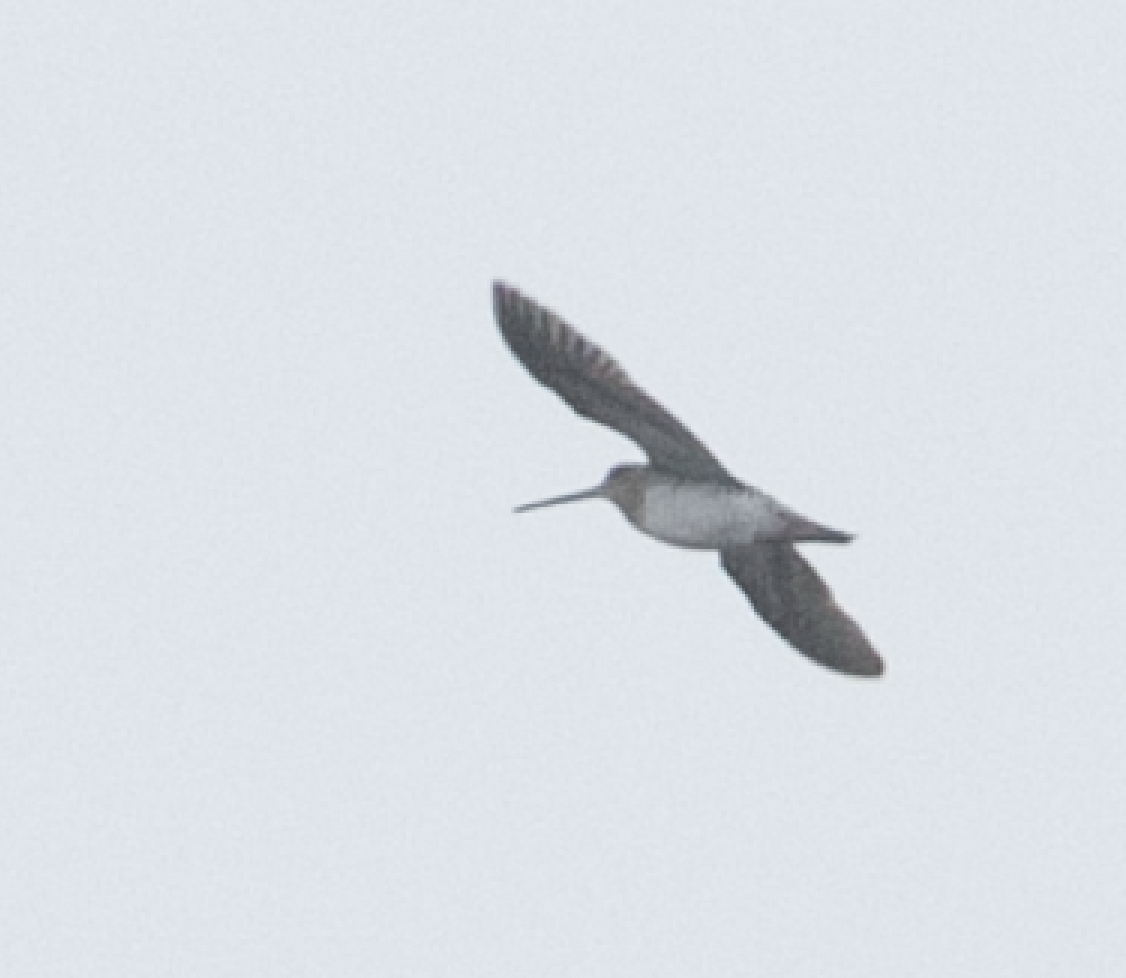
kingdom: Animalia
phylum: Chordata
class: Aves
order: Charadriiformes
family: Scolopacidae
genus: Gallinago
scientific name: Gallinago gallinago
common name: Common snipe
